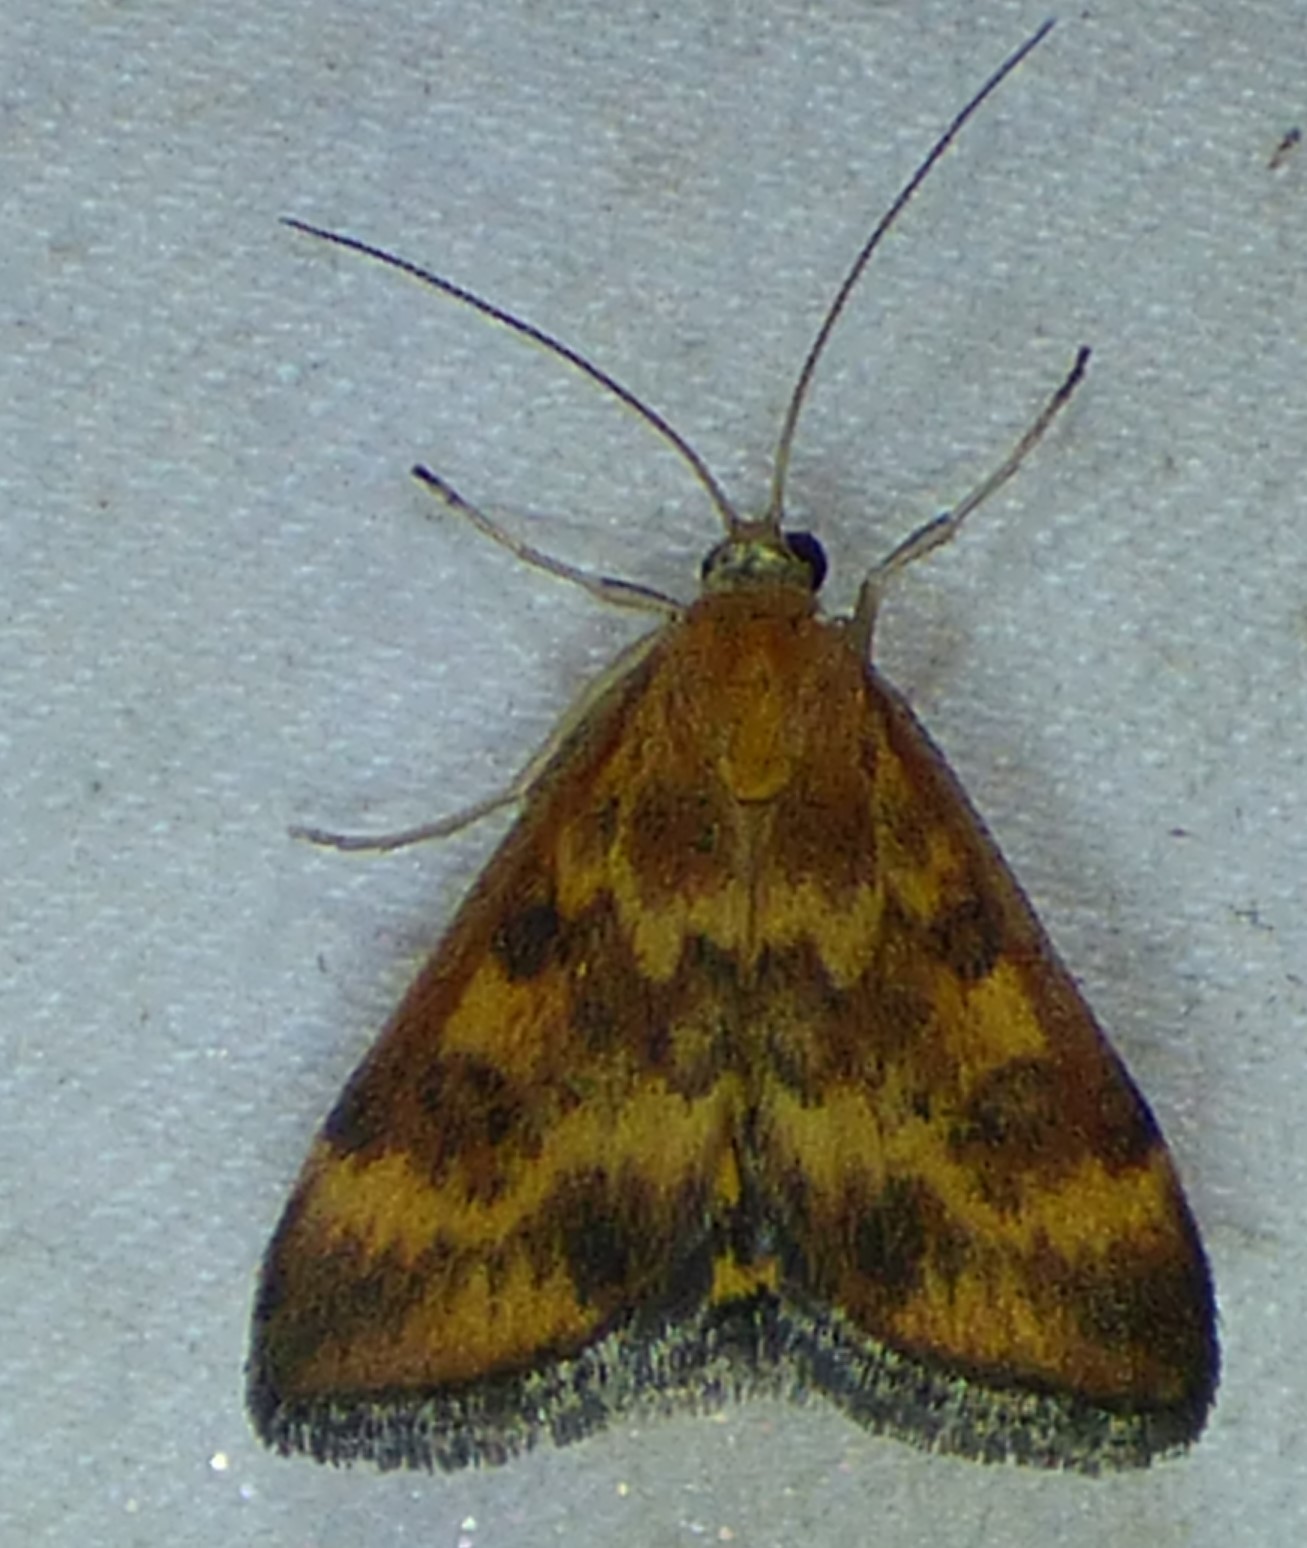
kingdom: Animalia
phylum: Arthropoda
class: Insecta
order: Lepidoptera
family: Crambidae
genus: Pyrausta
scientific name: Pyrausta subsequalis
